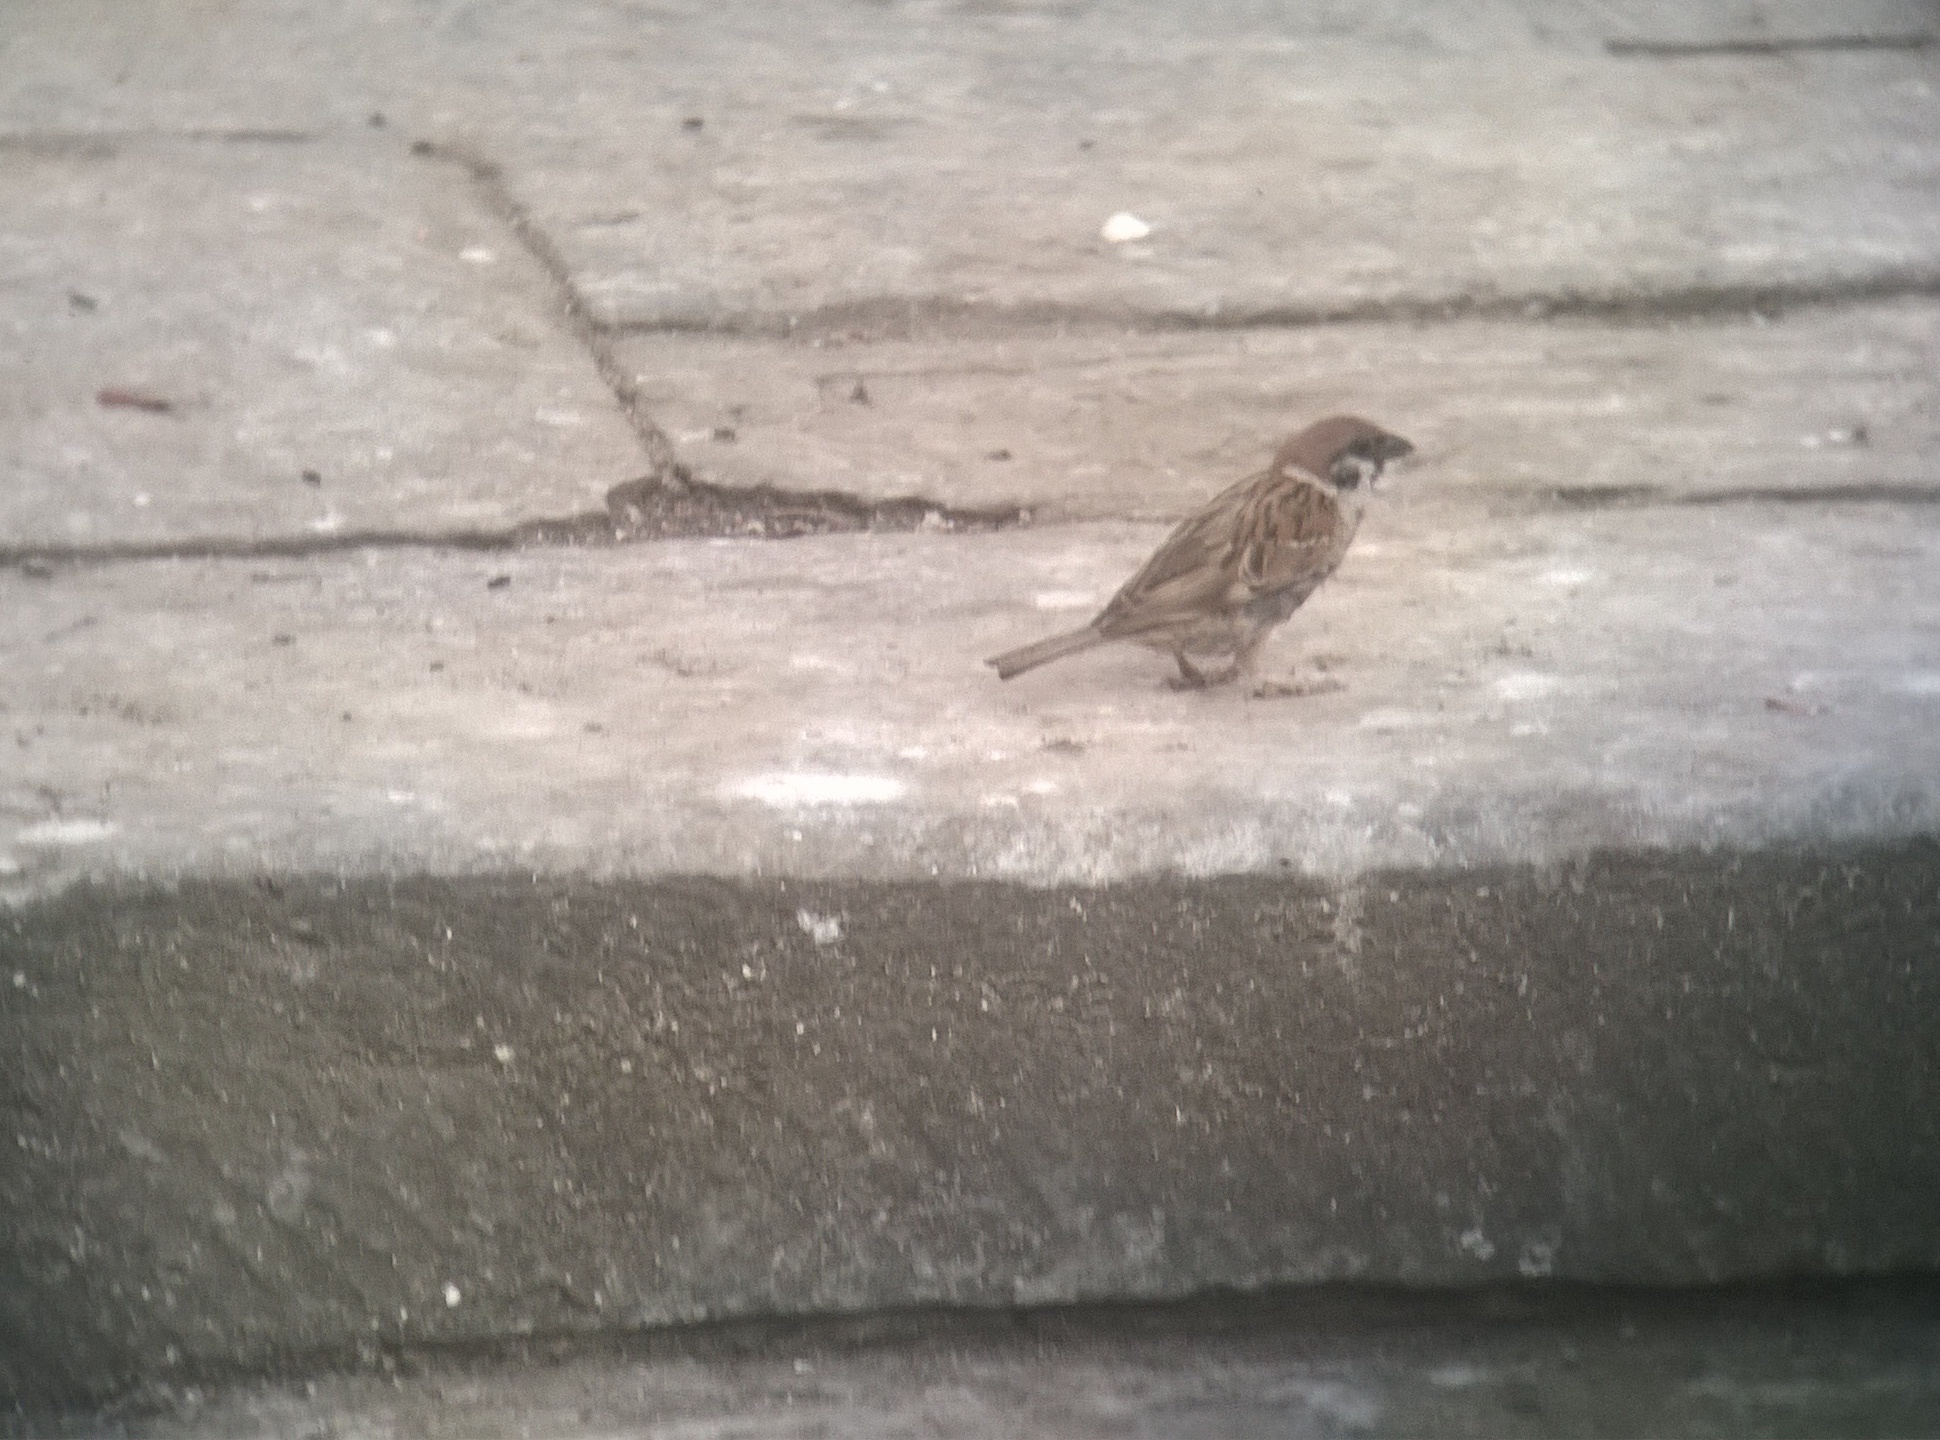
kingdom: Animalia
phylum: Chordata
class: Aves
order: Passeriformes
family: Passeridae
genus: Passer
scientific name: Passer montanus
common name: Eurasian tree sparrow
